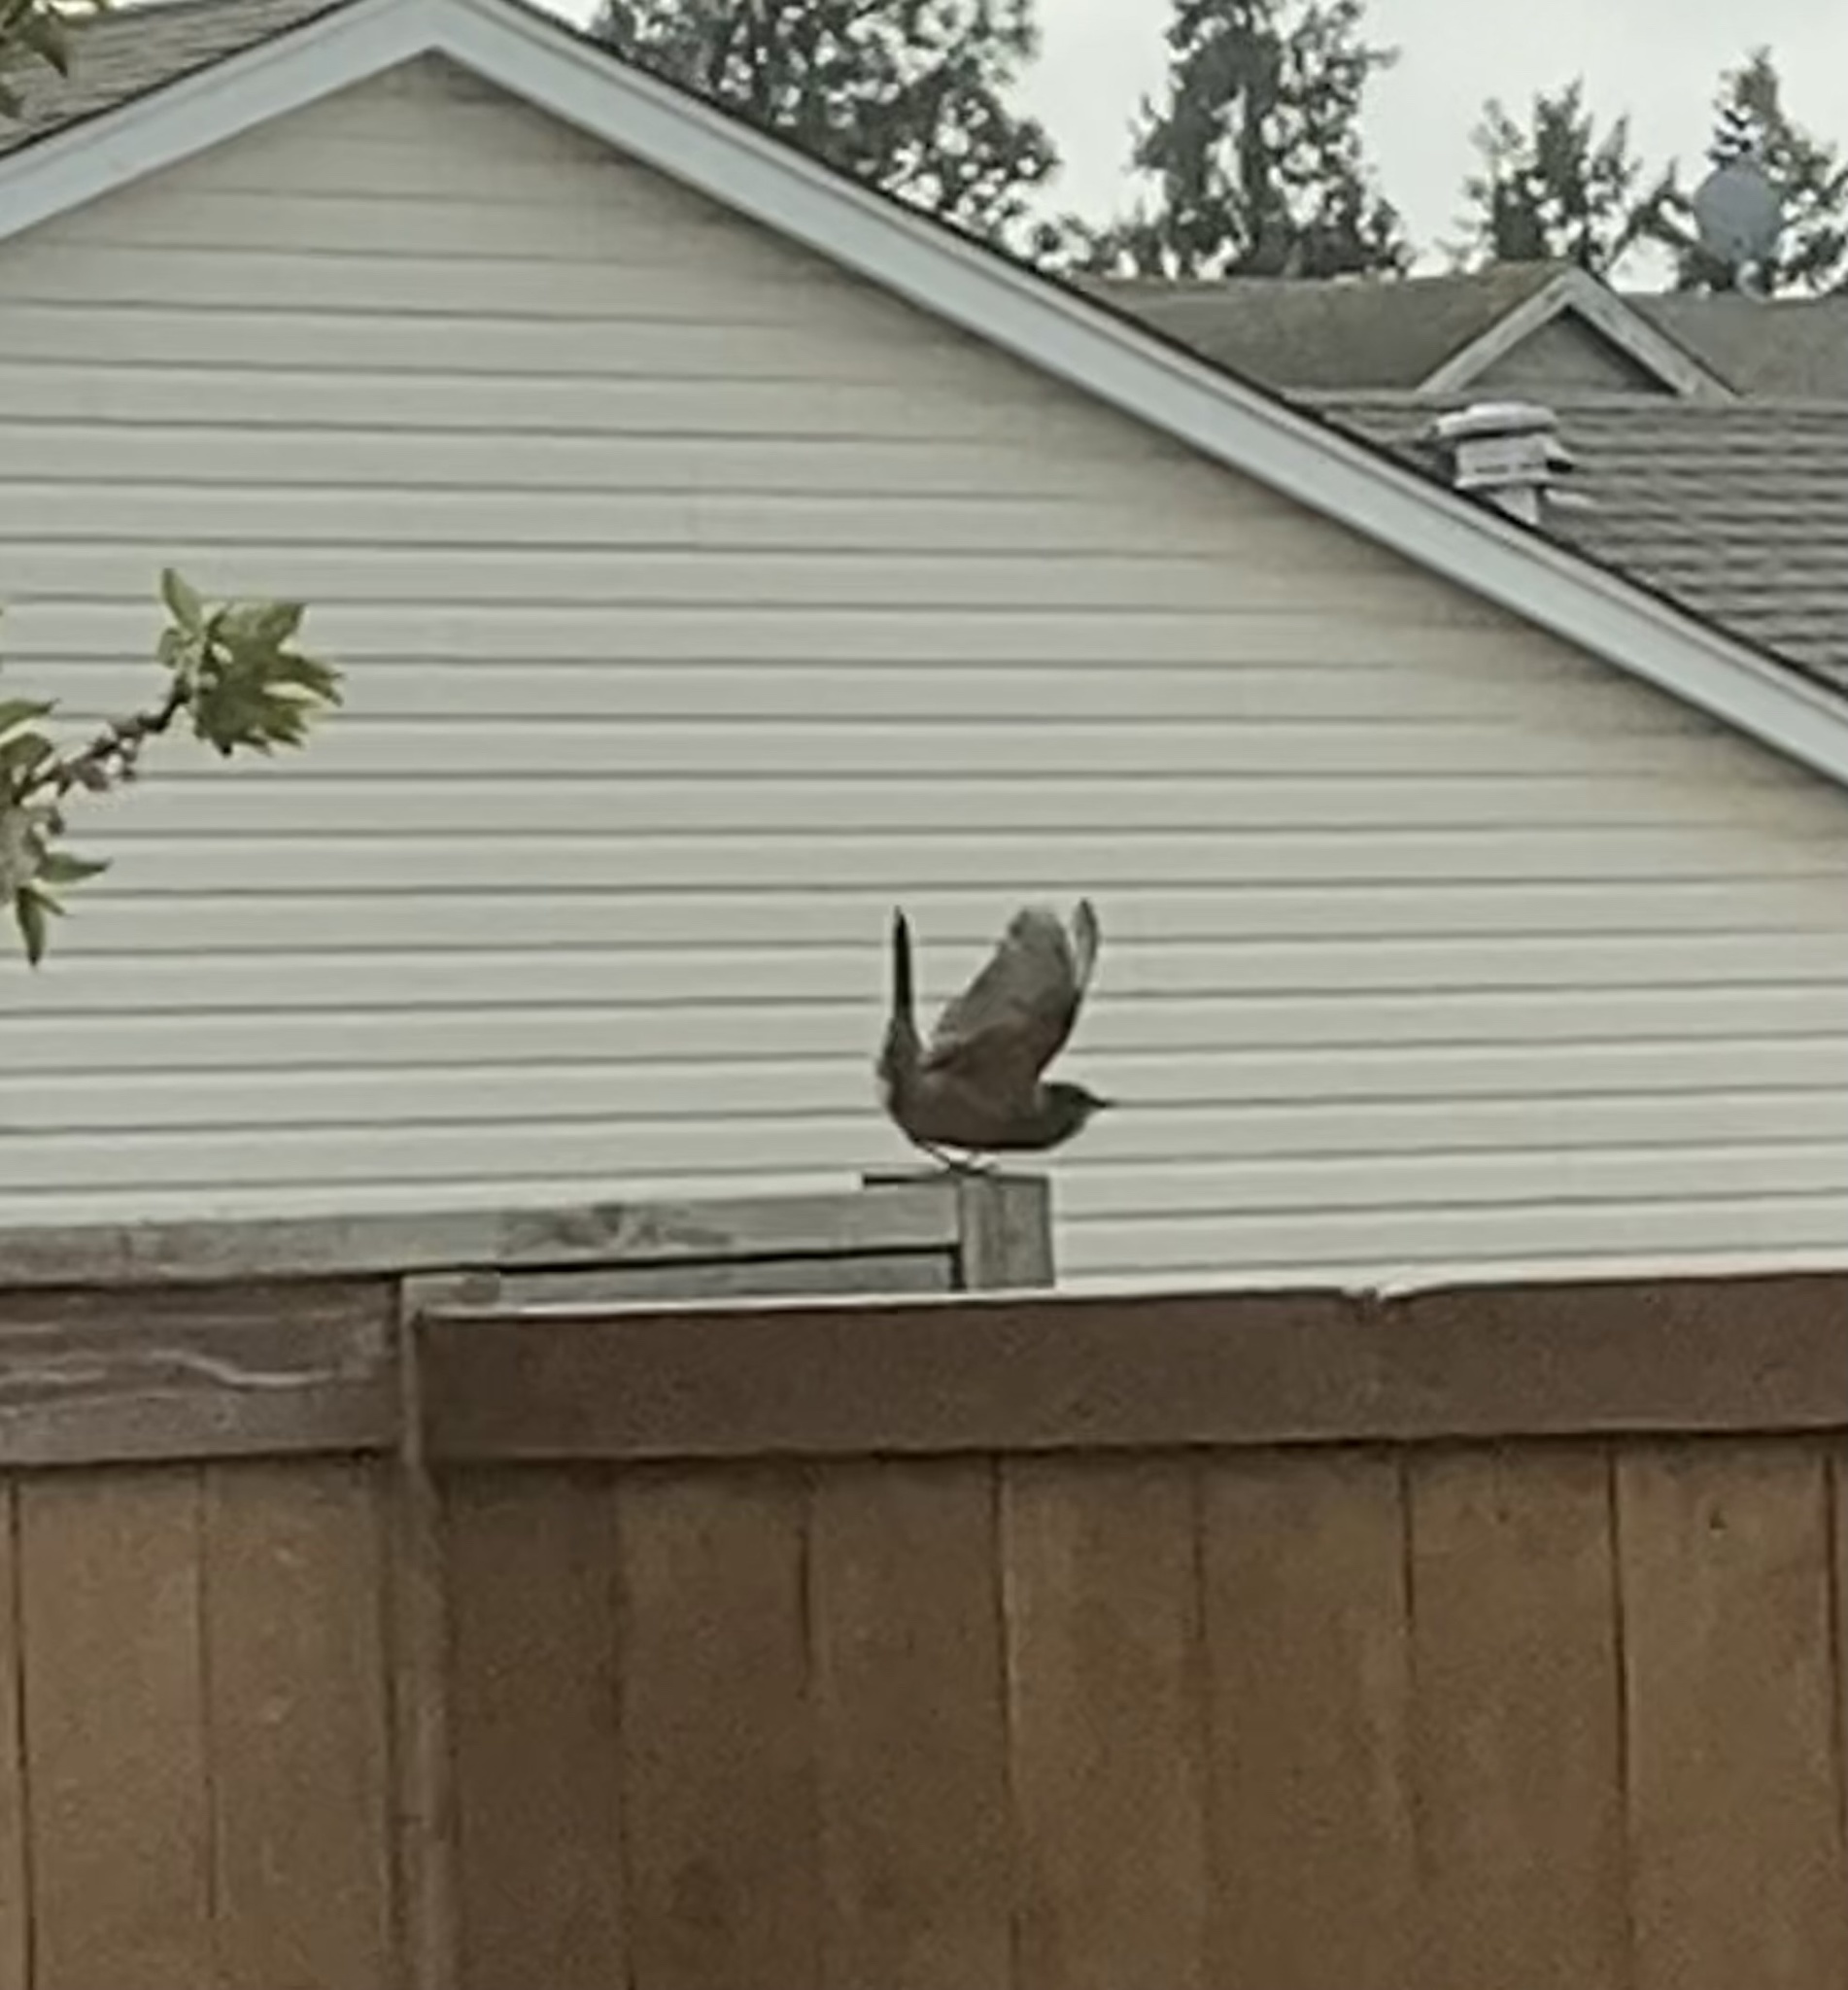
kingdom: Animalia
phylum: Chordata
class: Aves
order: Passeriformes
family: Turdidae
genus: Turdus
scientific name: Turdus migratorius
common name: American robin
